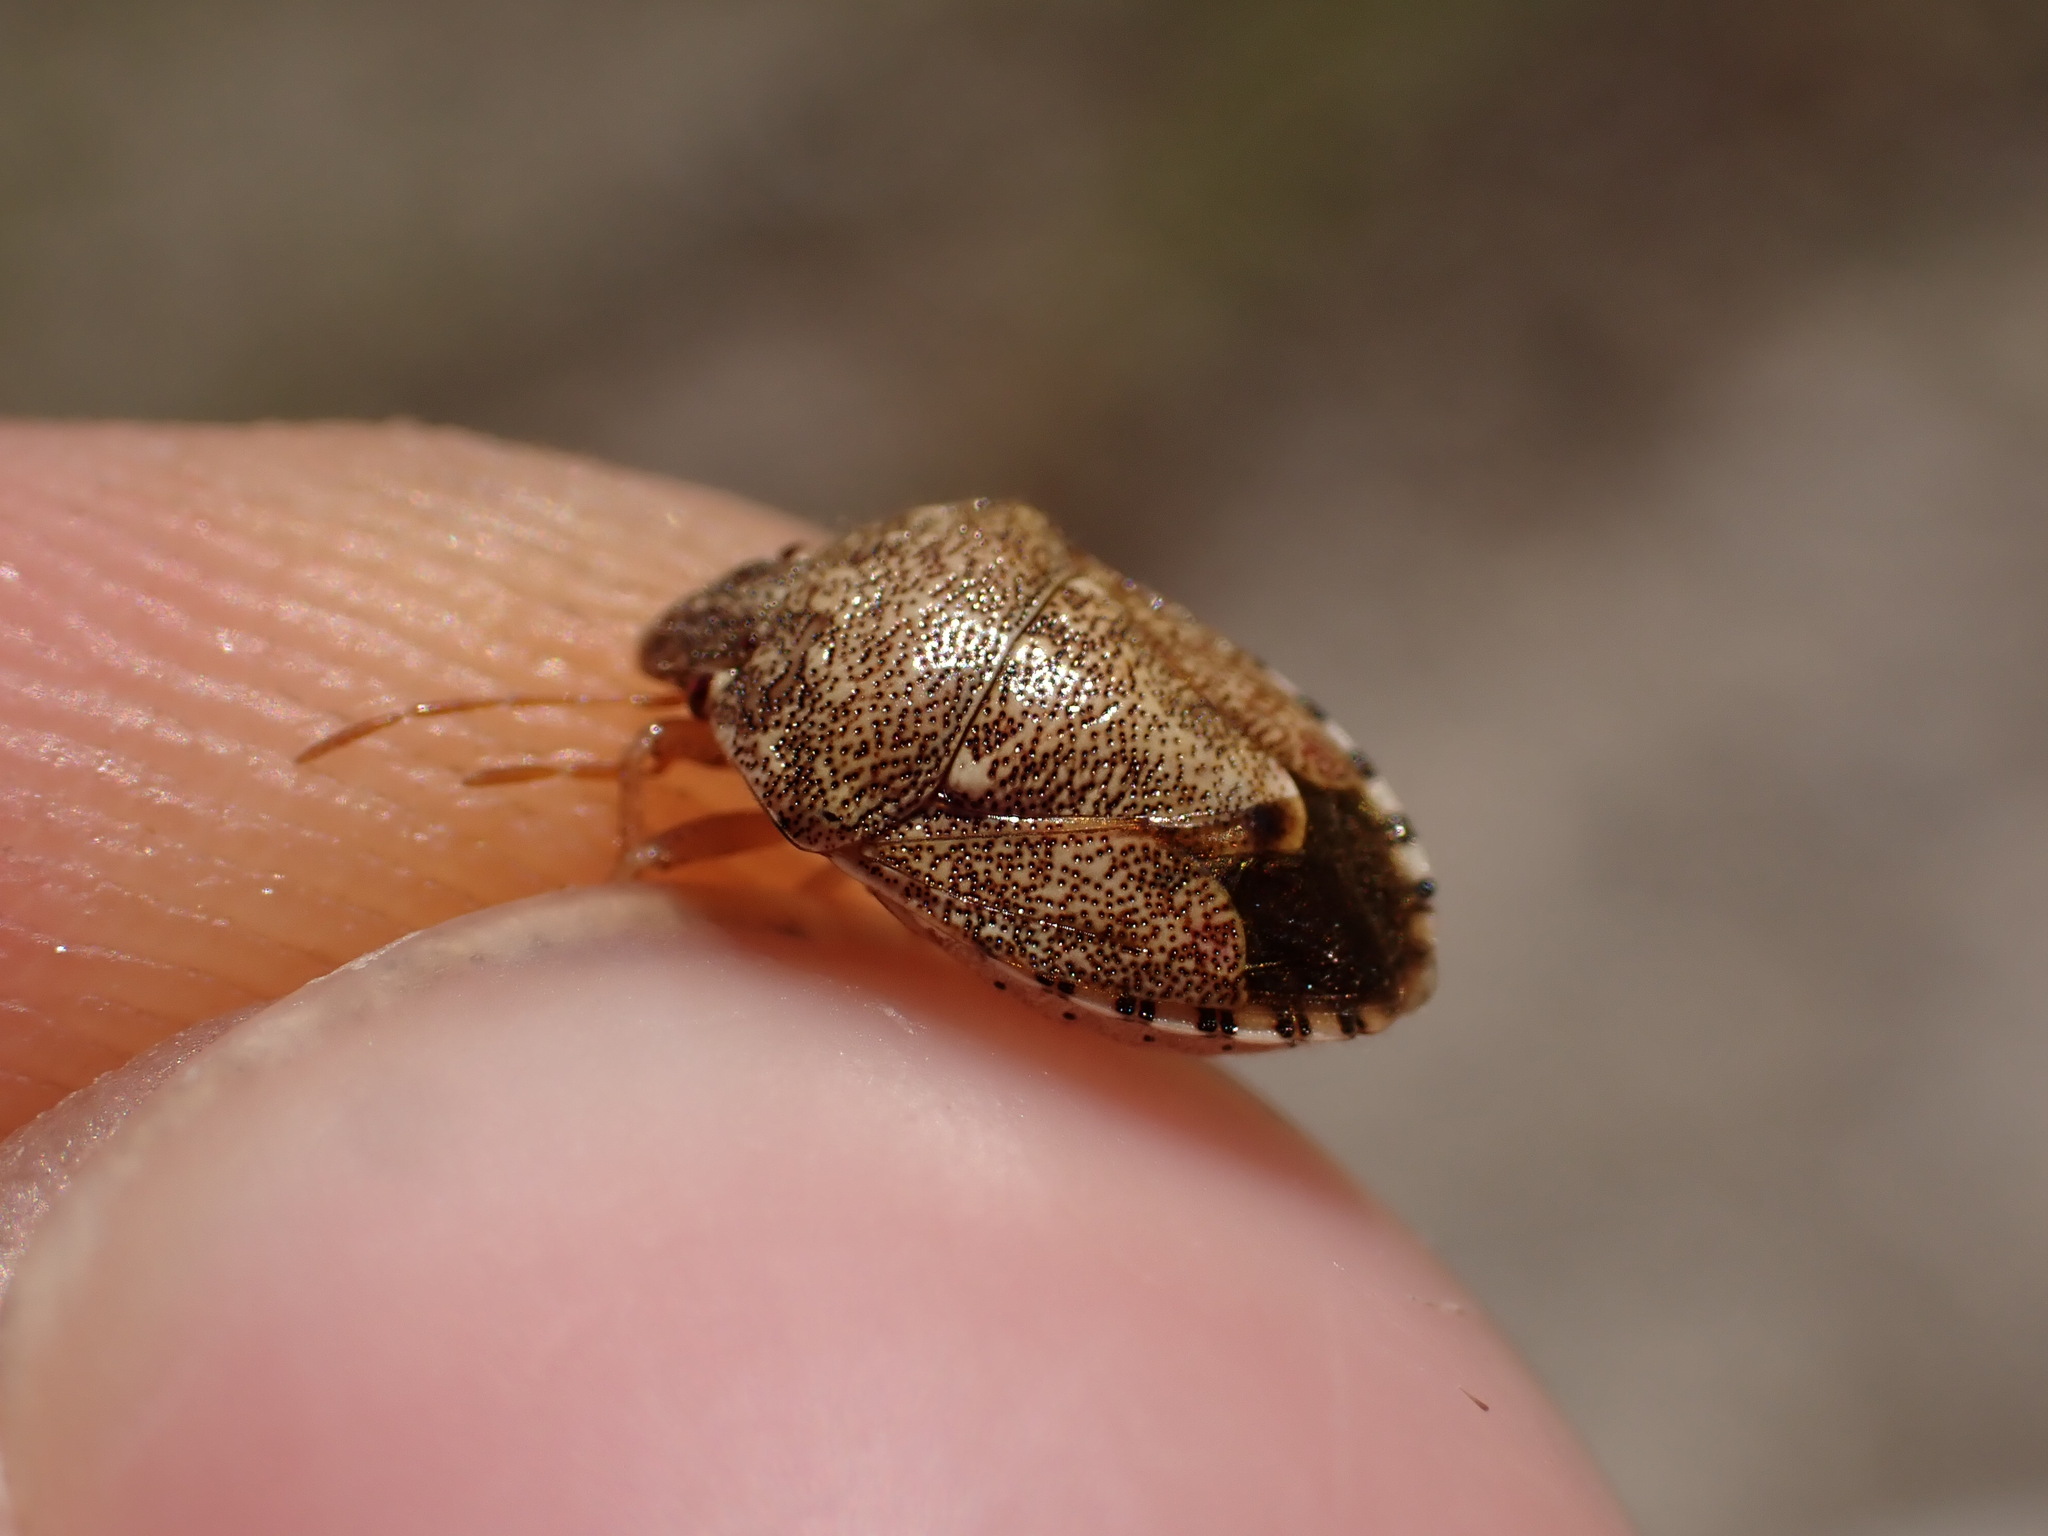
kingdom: Animalia
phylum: Arthropoda
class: Insecta
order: Hemiptera
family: Pentatomidae
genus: Staria
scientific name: Staria lunata
